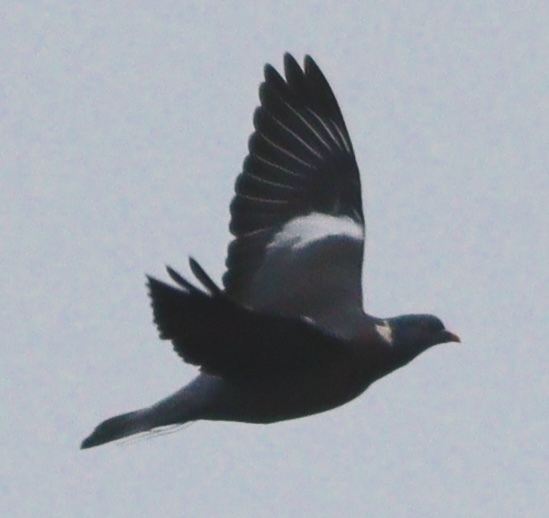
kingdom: Animalia
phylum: Chordata
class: Aves
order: Columbiformes
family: Columbidae
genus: Columba
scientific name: Columba palumbus
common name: Common wood pigeon
